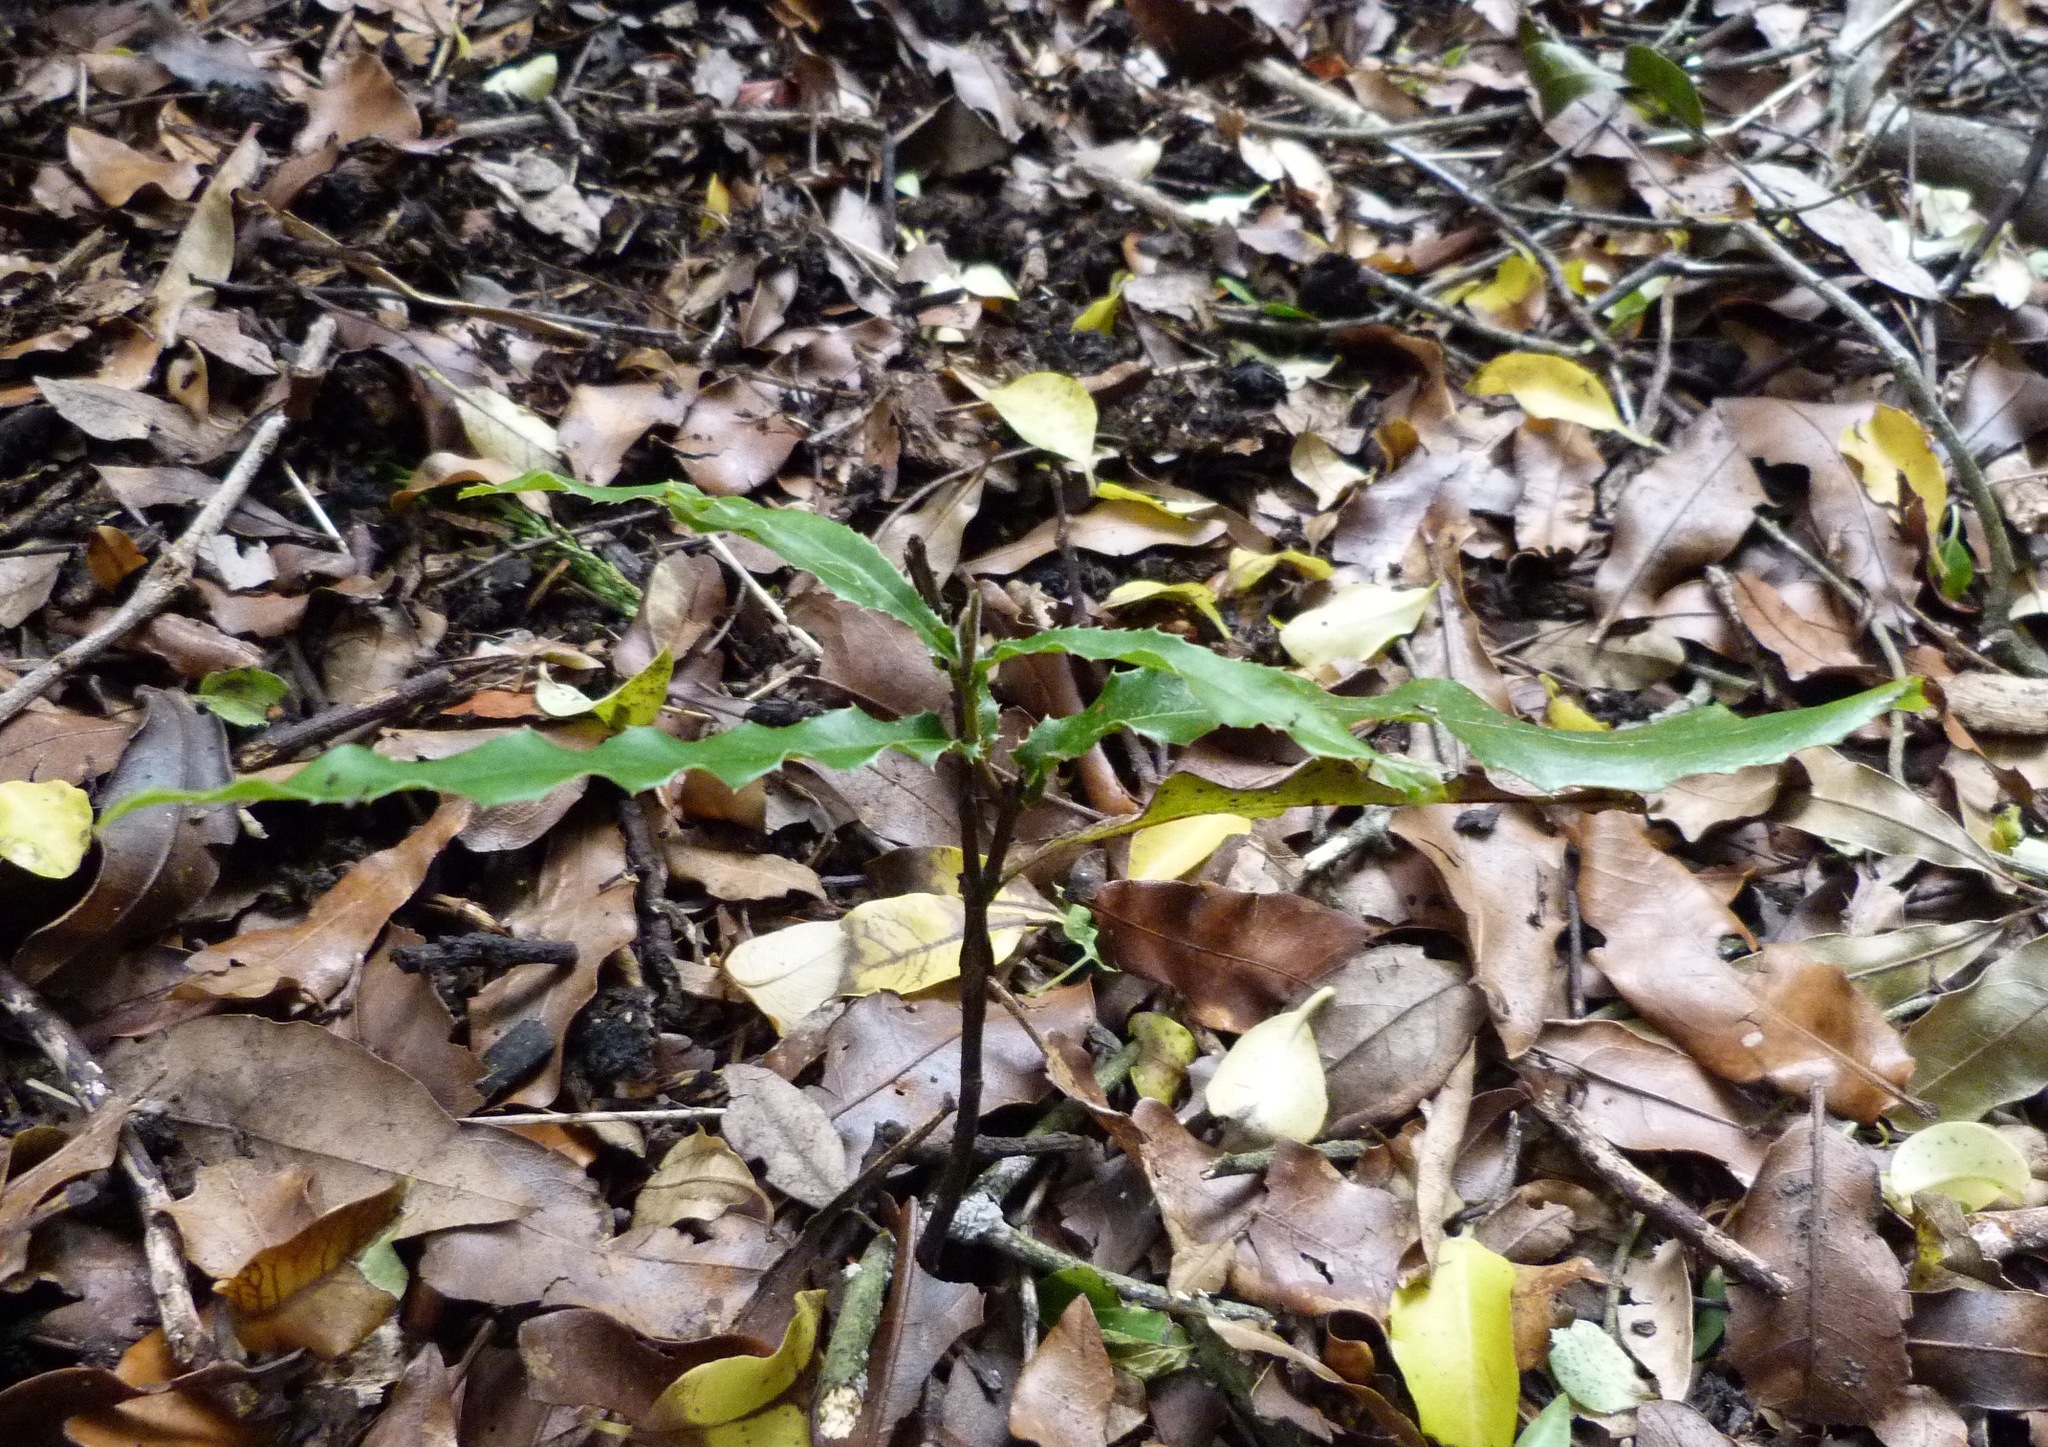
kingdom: Plantae
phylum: Tracheophyta
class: Magnoliopsida
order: Proteales
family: Proteaceae
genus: Macadamia
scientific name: Macadamia tetraphylla
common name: Macadamia nut
